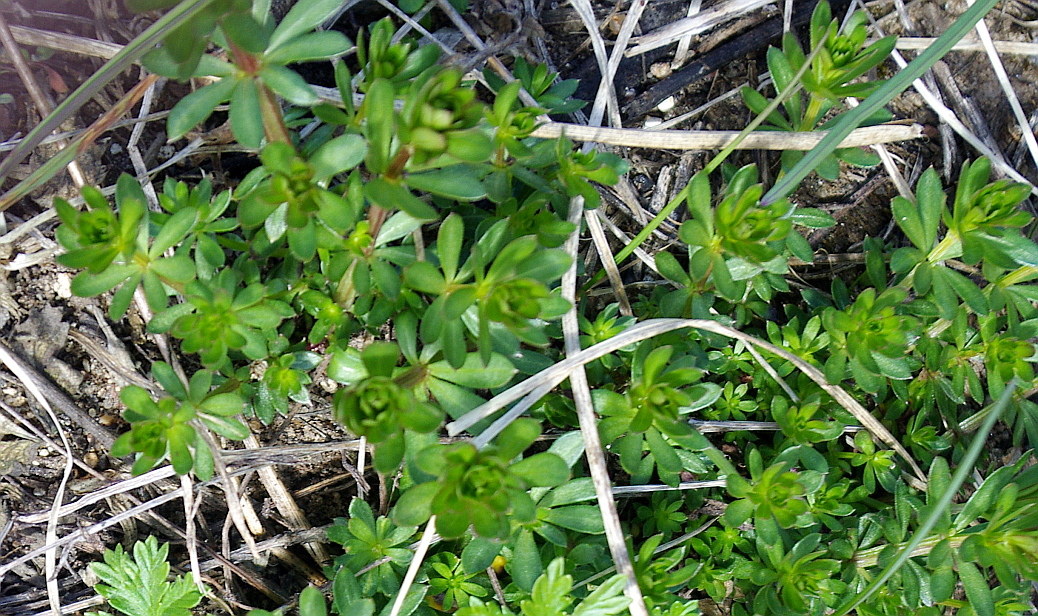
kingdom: Plantae
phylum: Tracheophyta
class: Magnoliopsida
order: Gentianales
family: Rubiaceae
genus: Galium
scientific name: Galium mollugo
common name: Hedge bedstraw
